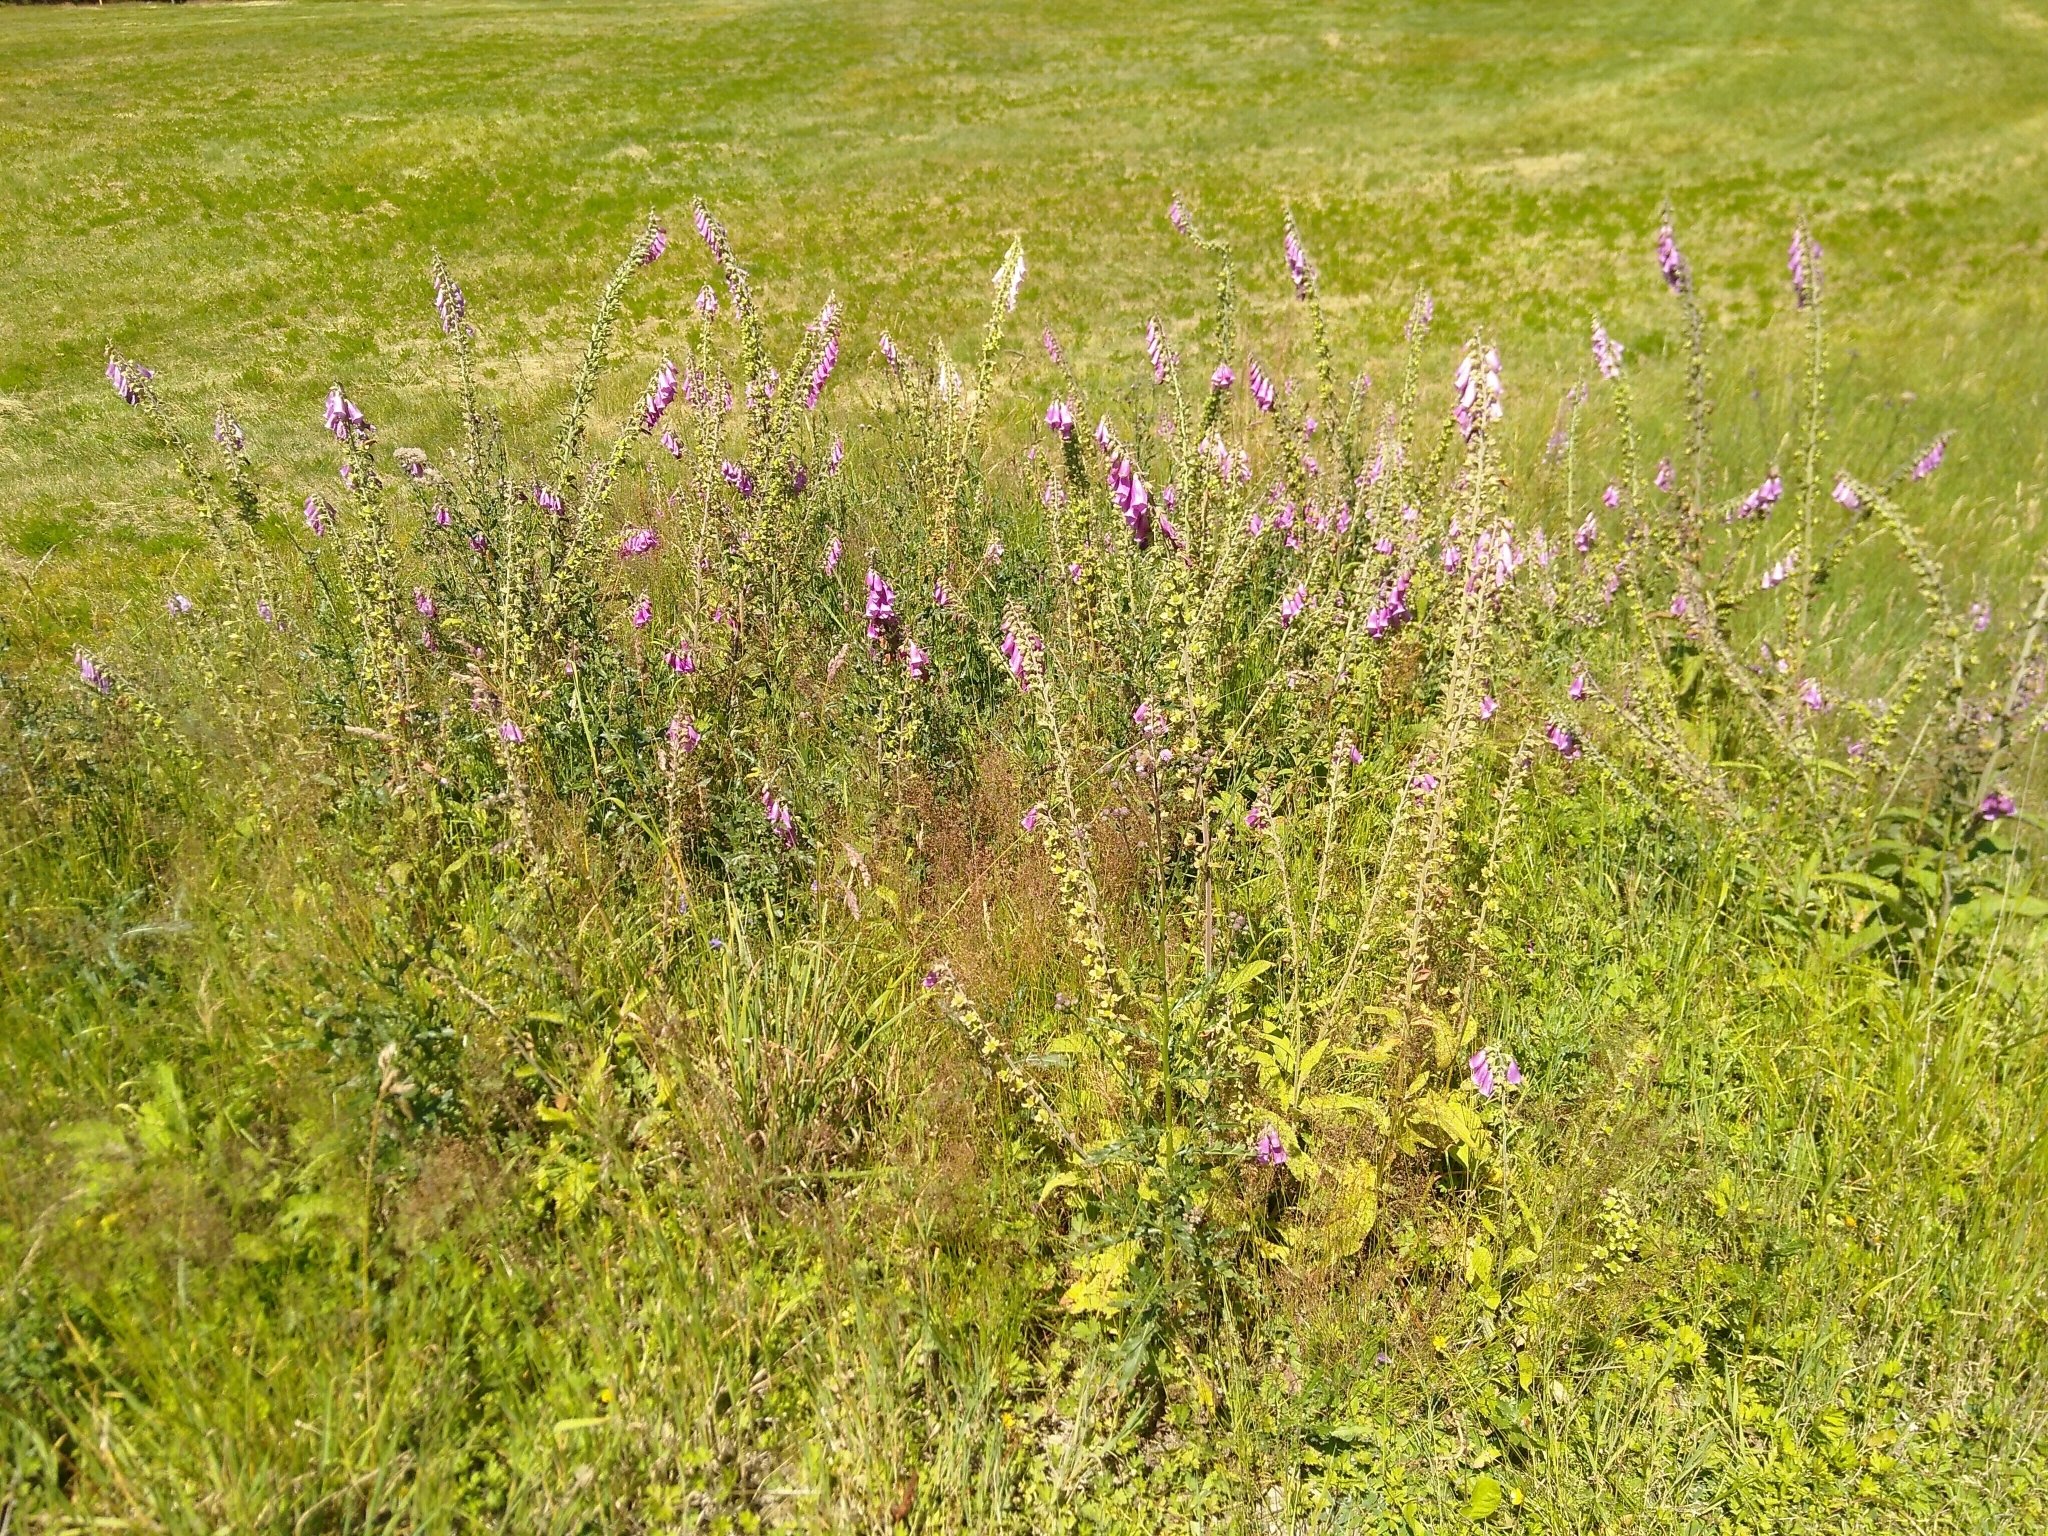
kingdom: Plantae
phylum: Tracheophyta
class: Magnoliopsida
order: Lamiales
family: Plantaginaceae
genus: Digitalis
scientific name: Digitalis purpurea
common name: Foxglove
